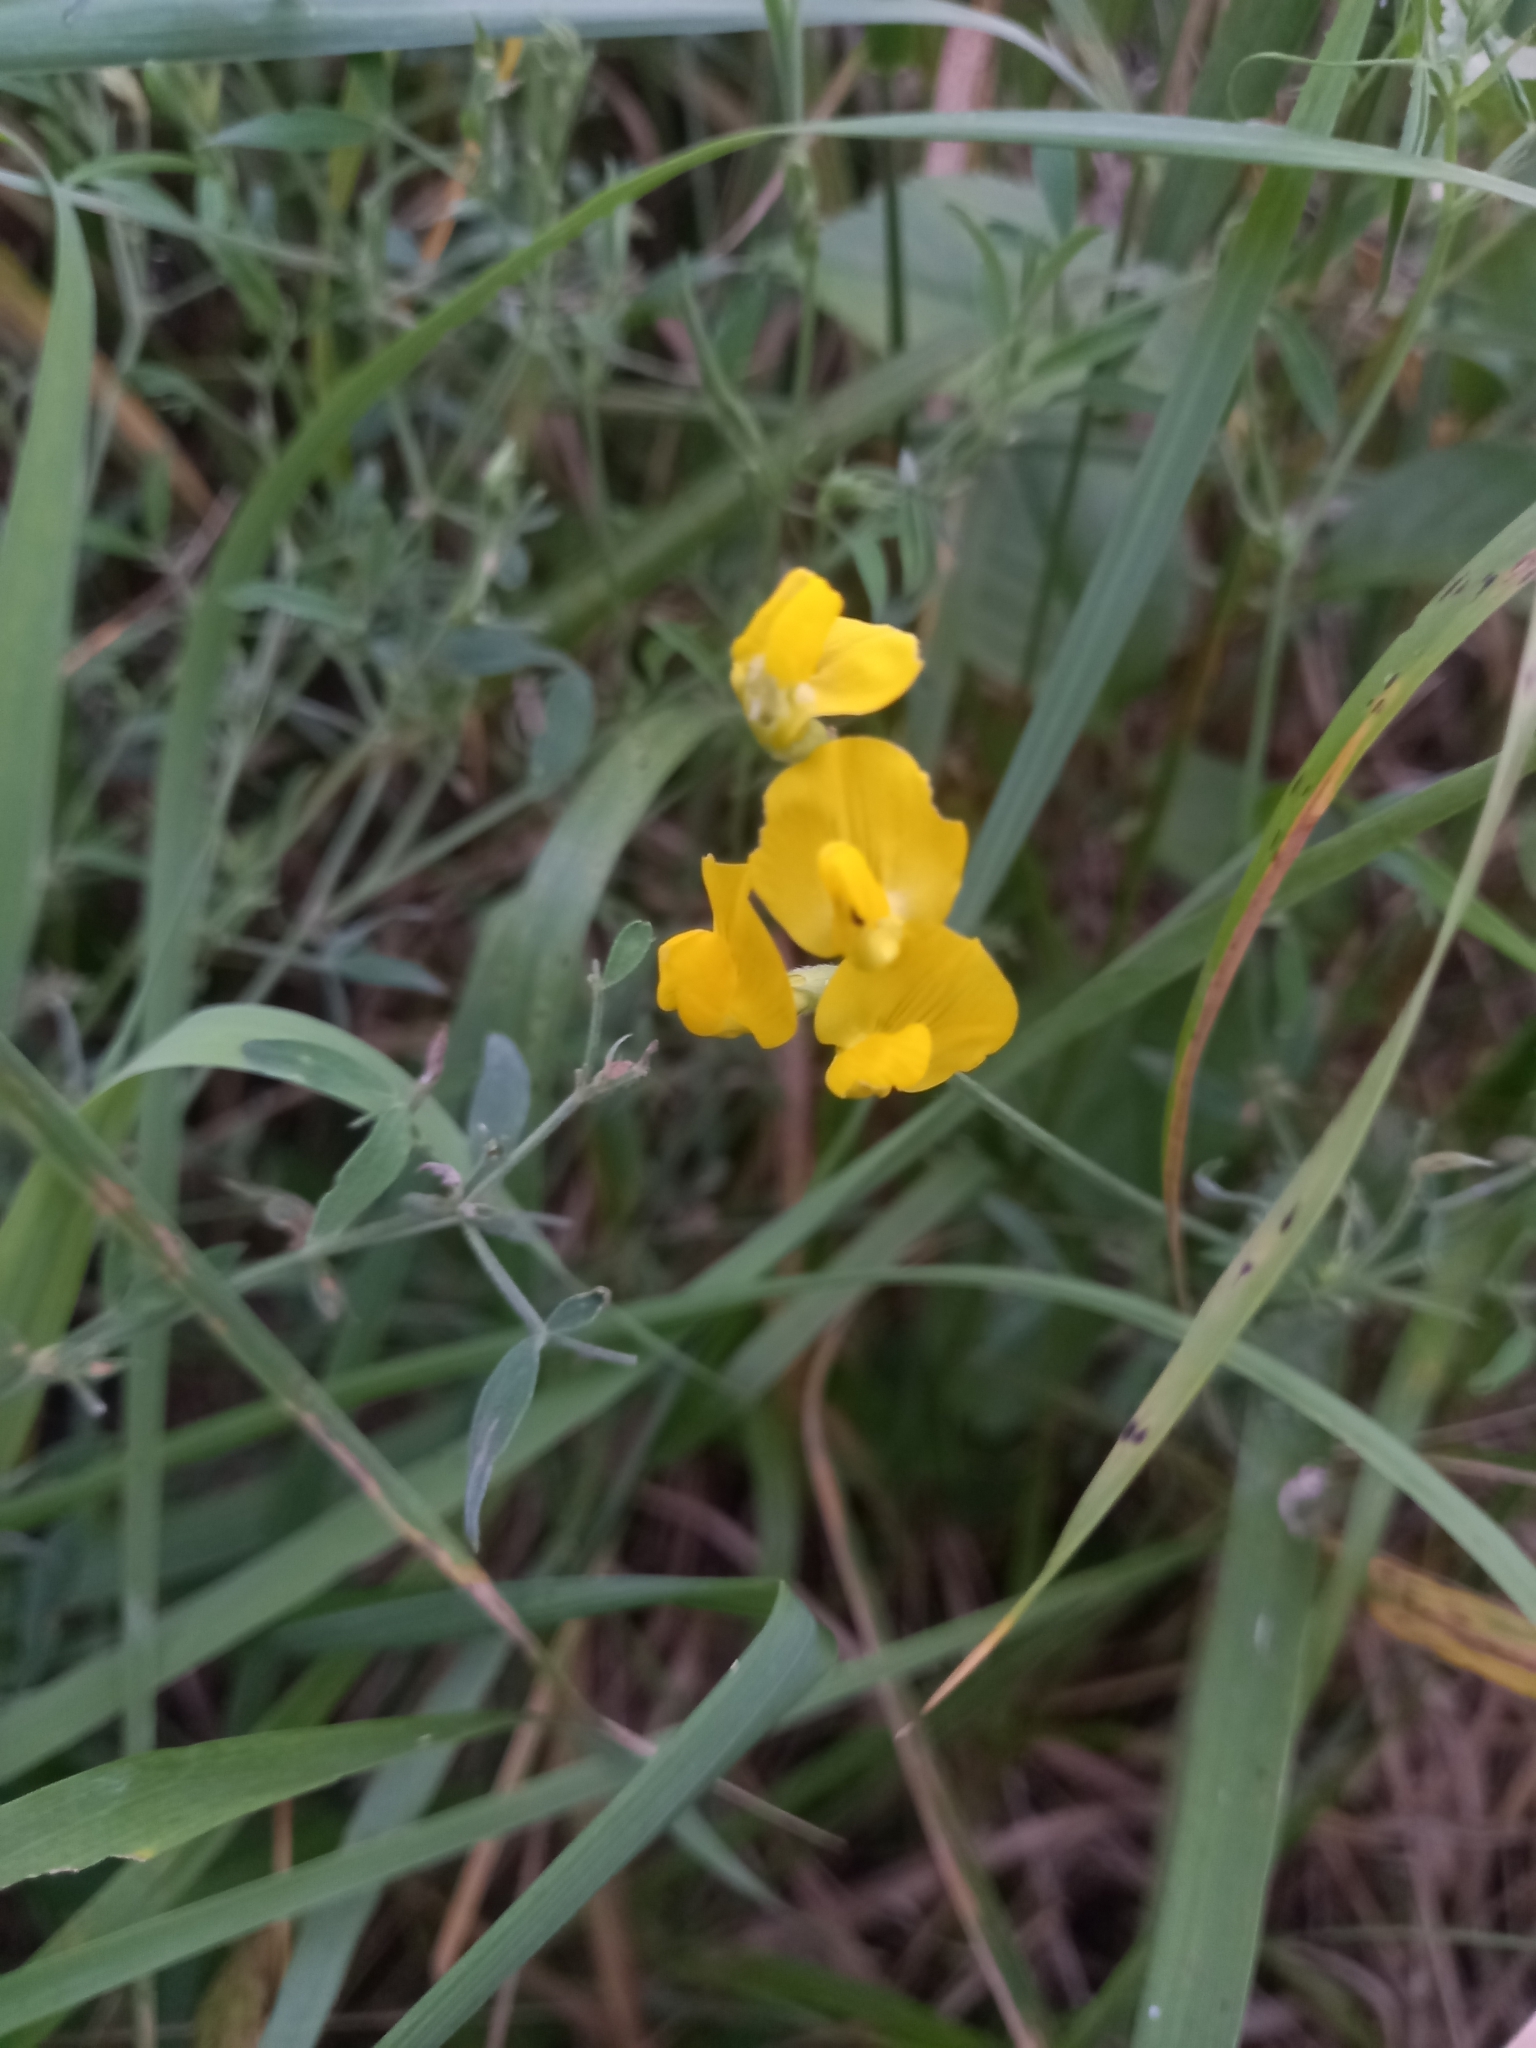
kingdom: Plantae
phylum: Tracheophyta
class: Magnoliopsida
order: Fabales
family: Fabaceae
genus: Lathyrus
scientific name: Lathyrus pratensis
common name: Meadow vetchling
